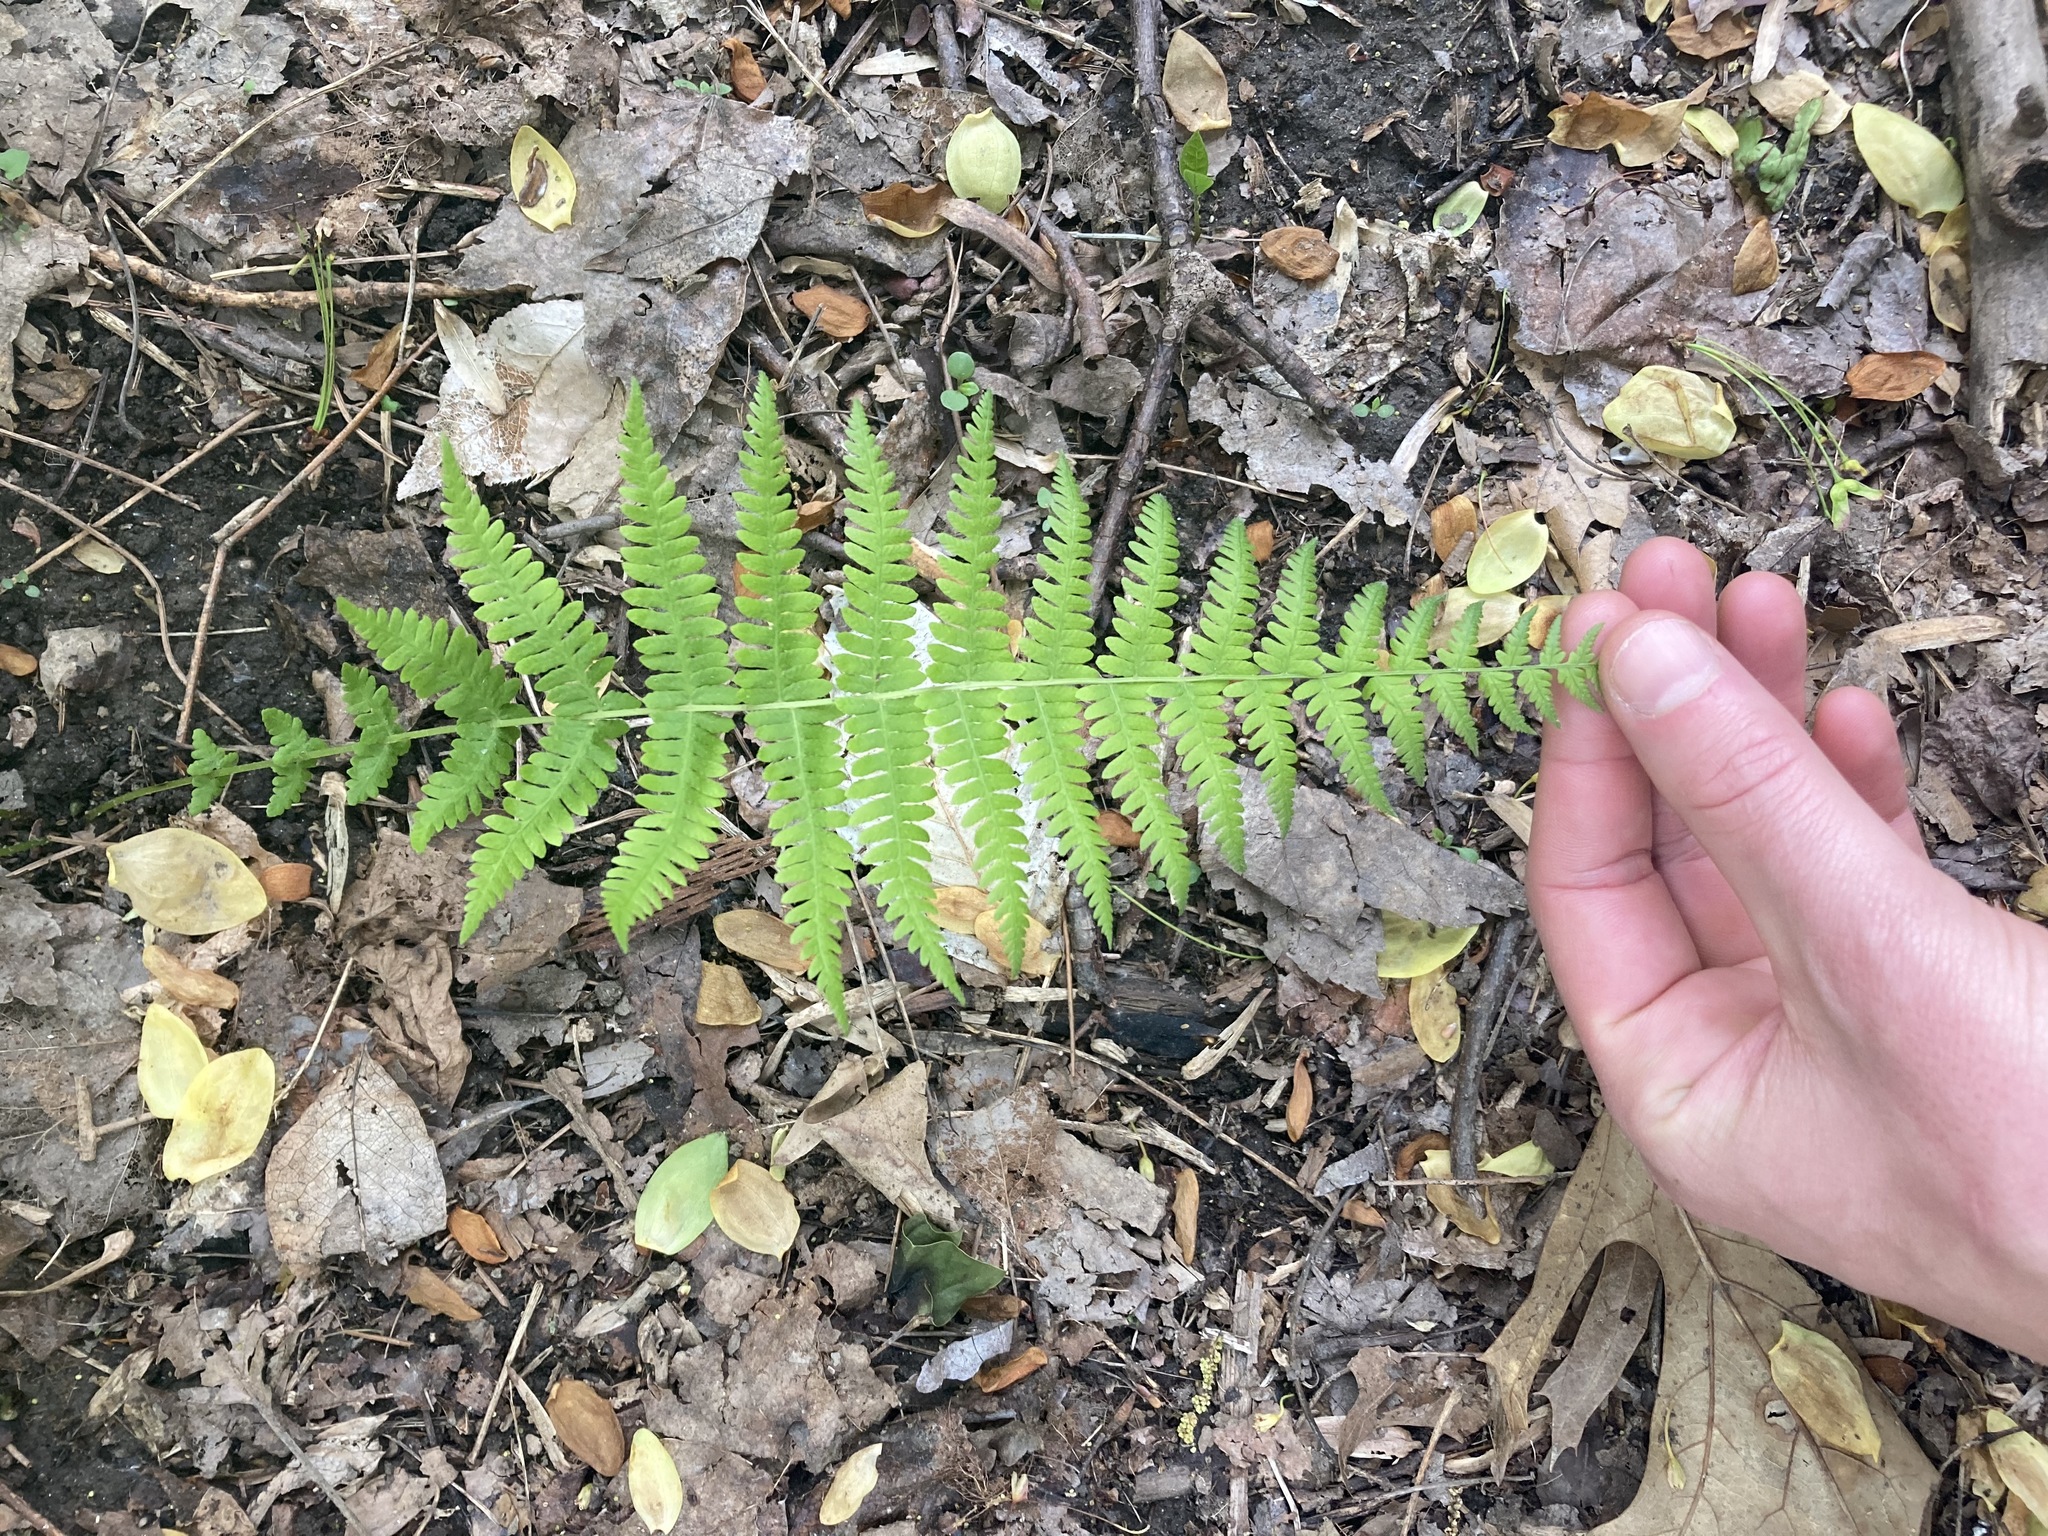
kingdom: Plantae
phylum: Tracheophyta
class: Polypodiopsida
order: Polypodiales
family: Thelypteridaceae
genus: Amauropelta
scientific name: Amauropelta noveboracensis
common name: New york fern
